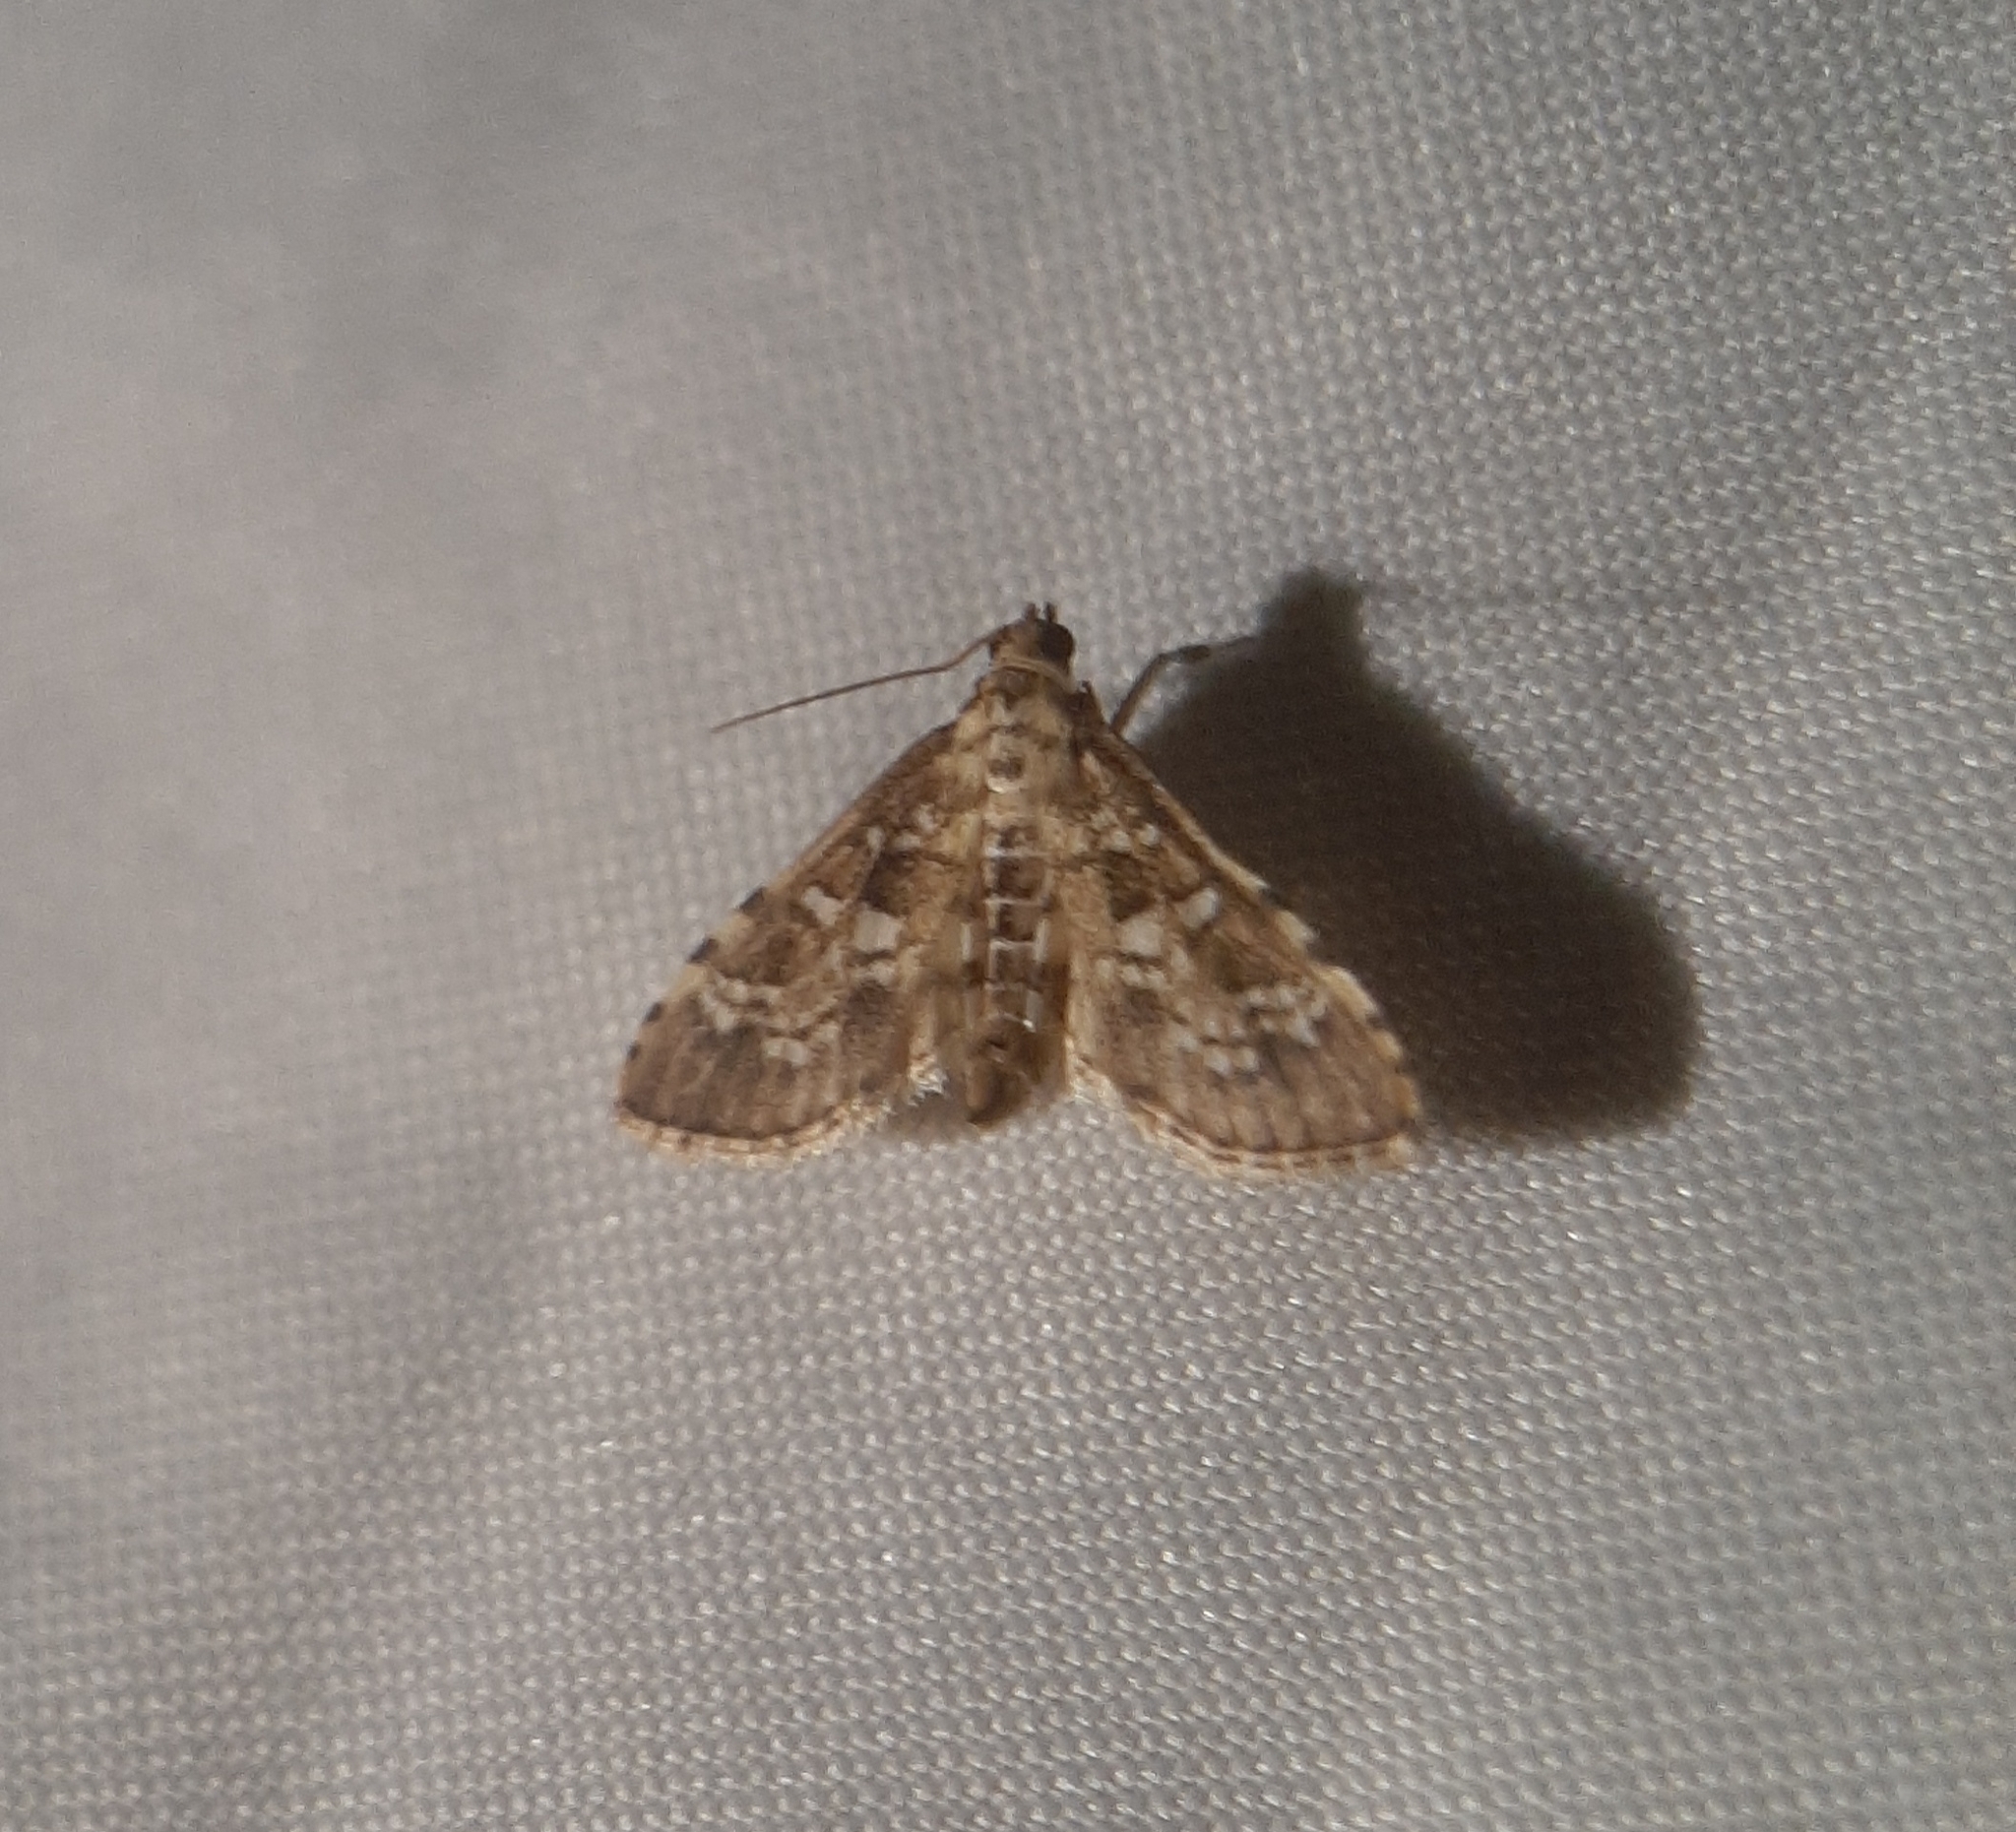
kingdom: Animalia
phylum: Arthropoda
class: Insecta
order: Lepidoptera
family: Crambidae
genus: Samea
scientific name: Samea multiplicalis
